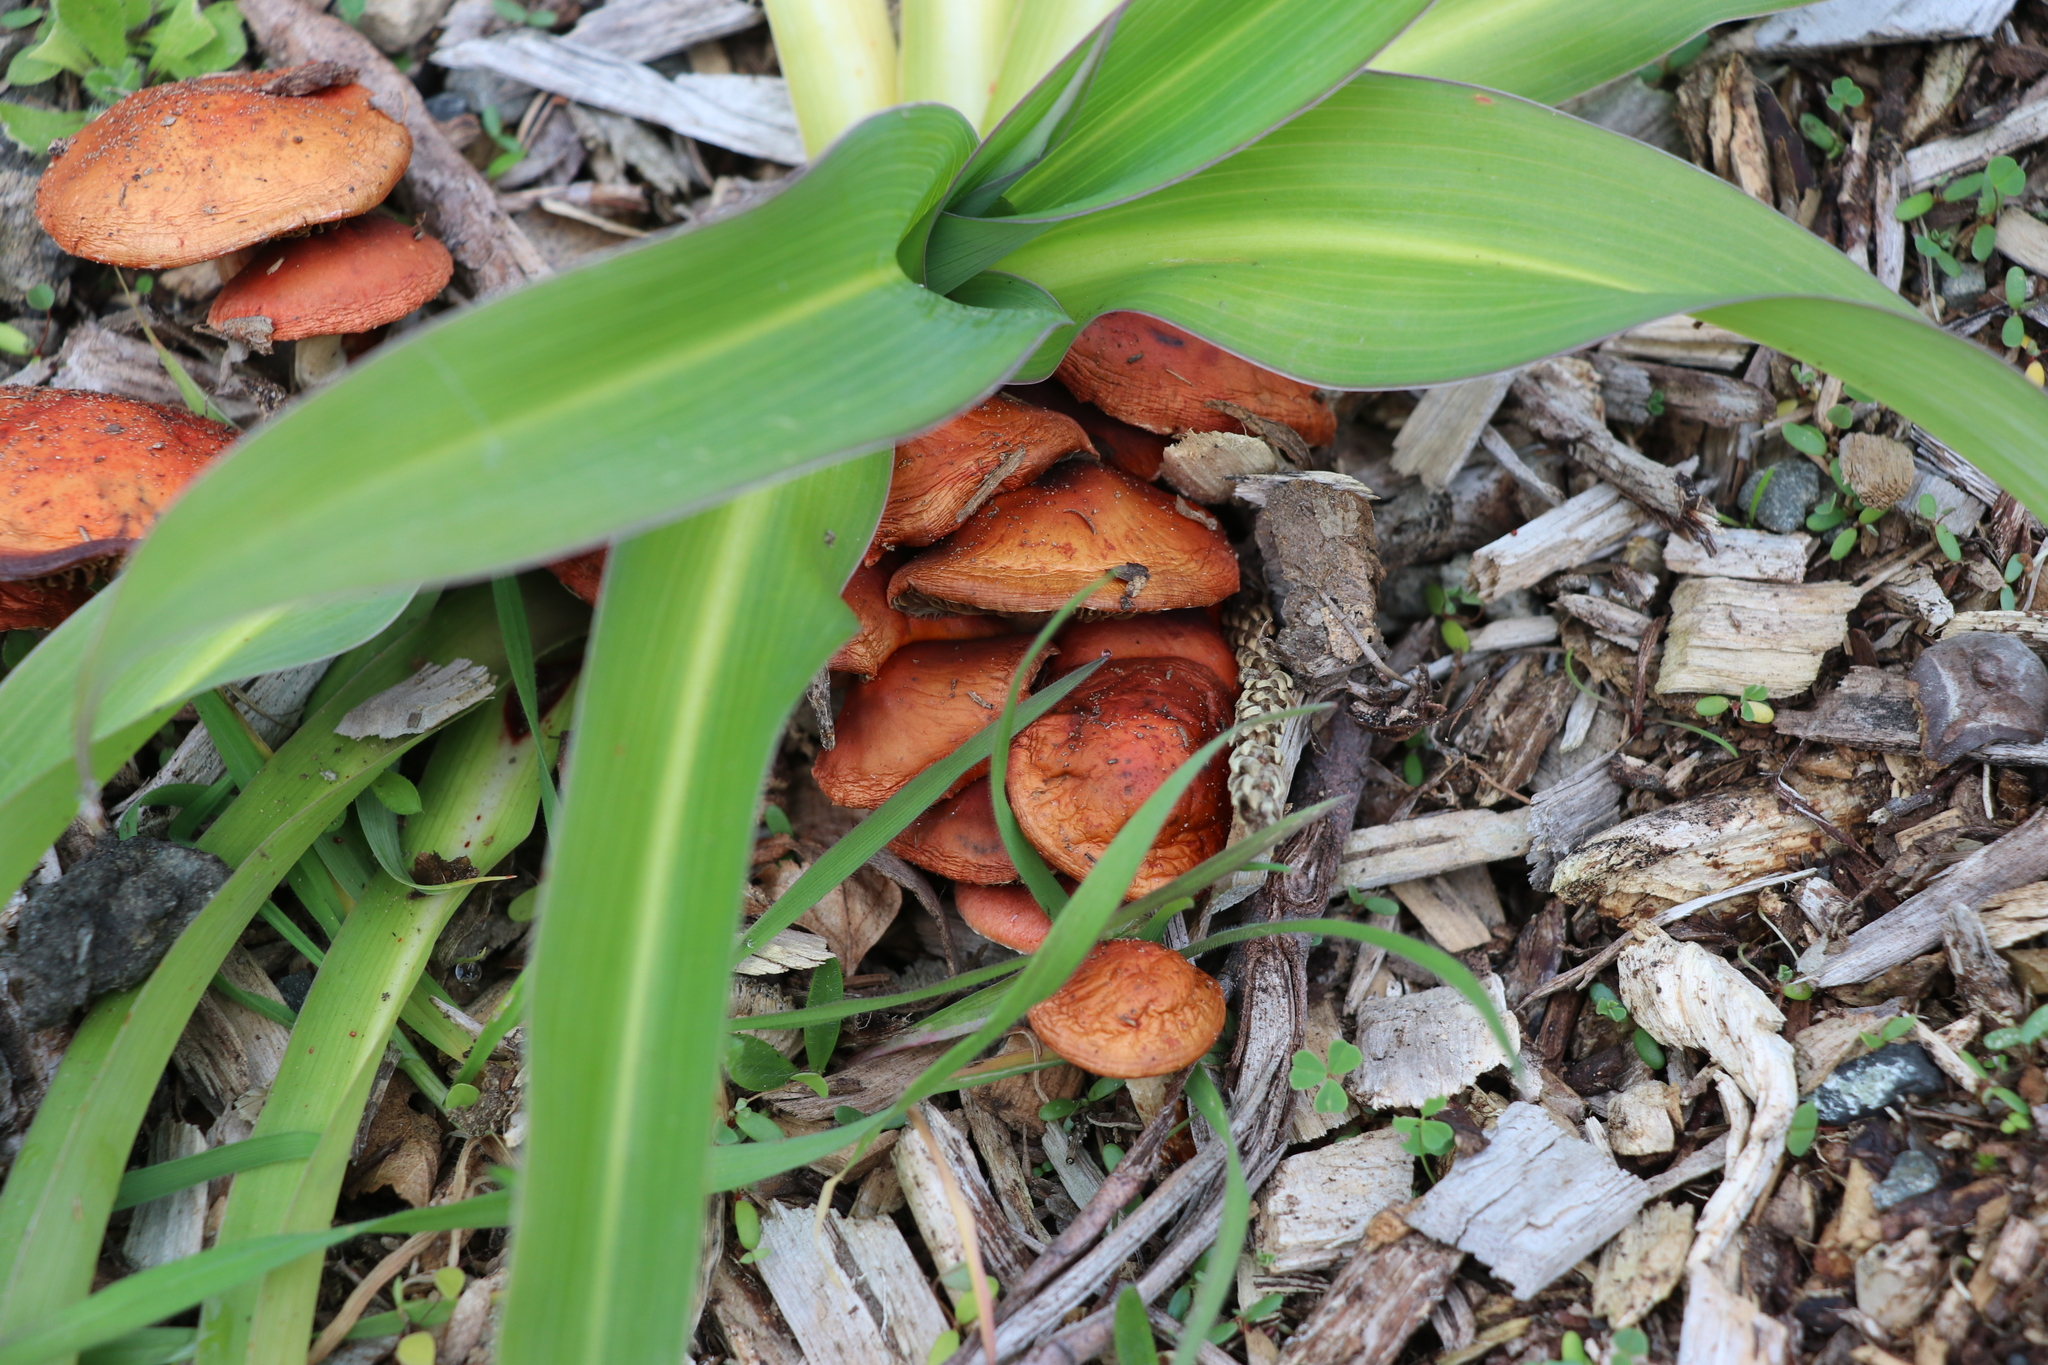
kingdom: Fungi
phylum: Basidiomycota
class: Agaricomycetes
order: Agaricales
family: Strophariaceae
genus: Leratiomyces
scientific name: Leratiomyces ceres
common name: Redlead roundhead
